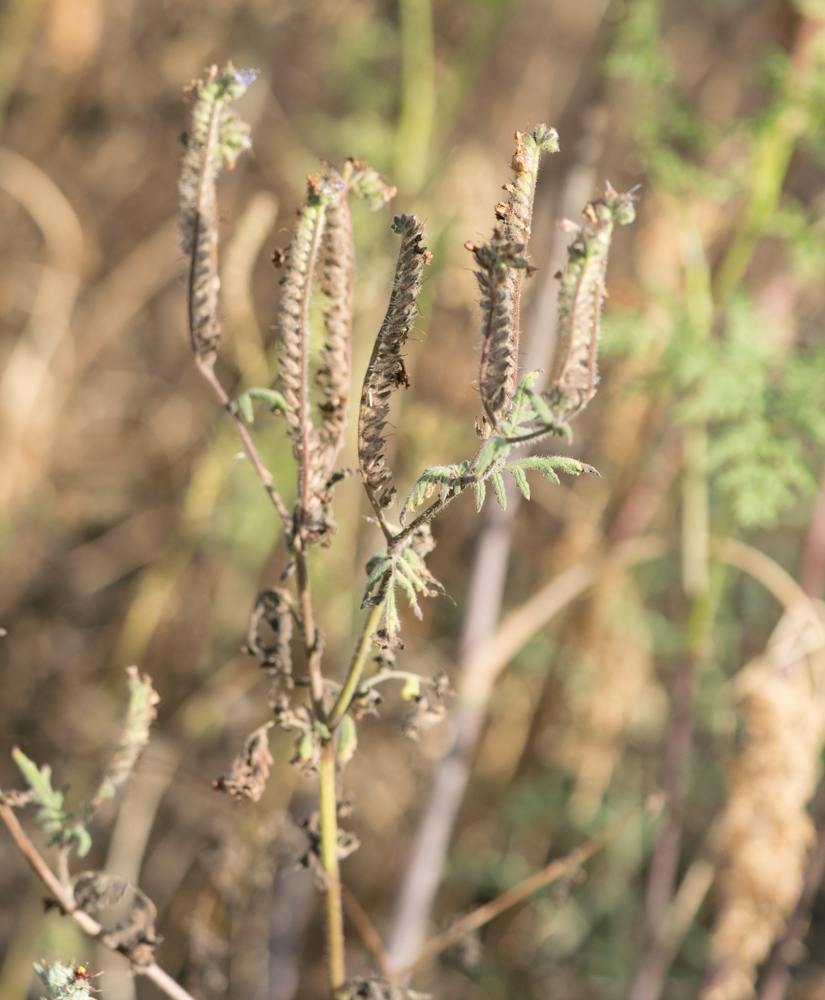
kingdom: Plantae
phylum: Tracheophyta
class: Magnoliopsida
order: Boraginales
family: Hydrophyllaceae
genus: Phacelia
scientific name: Phacelia distans
